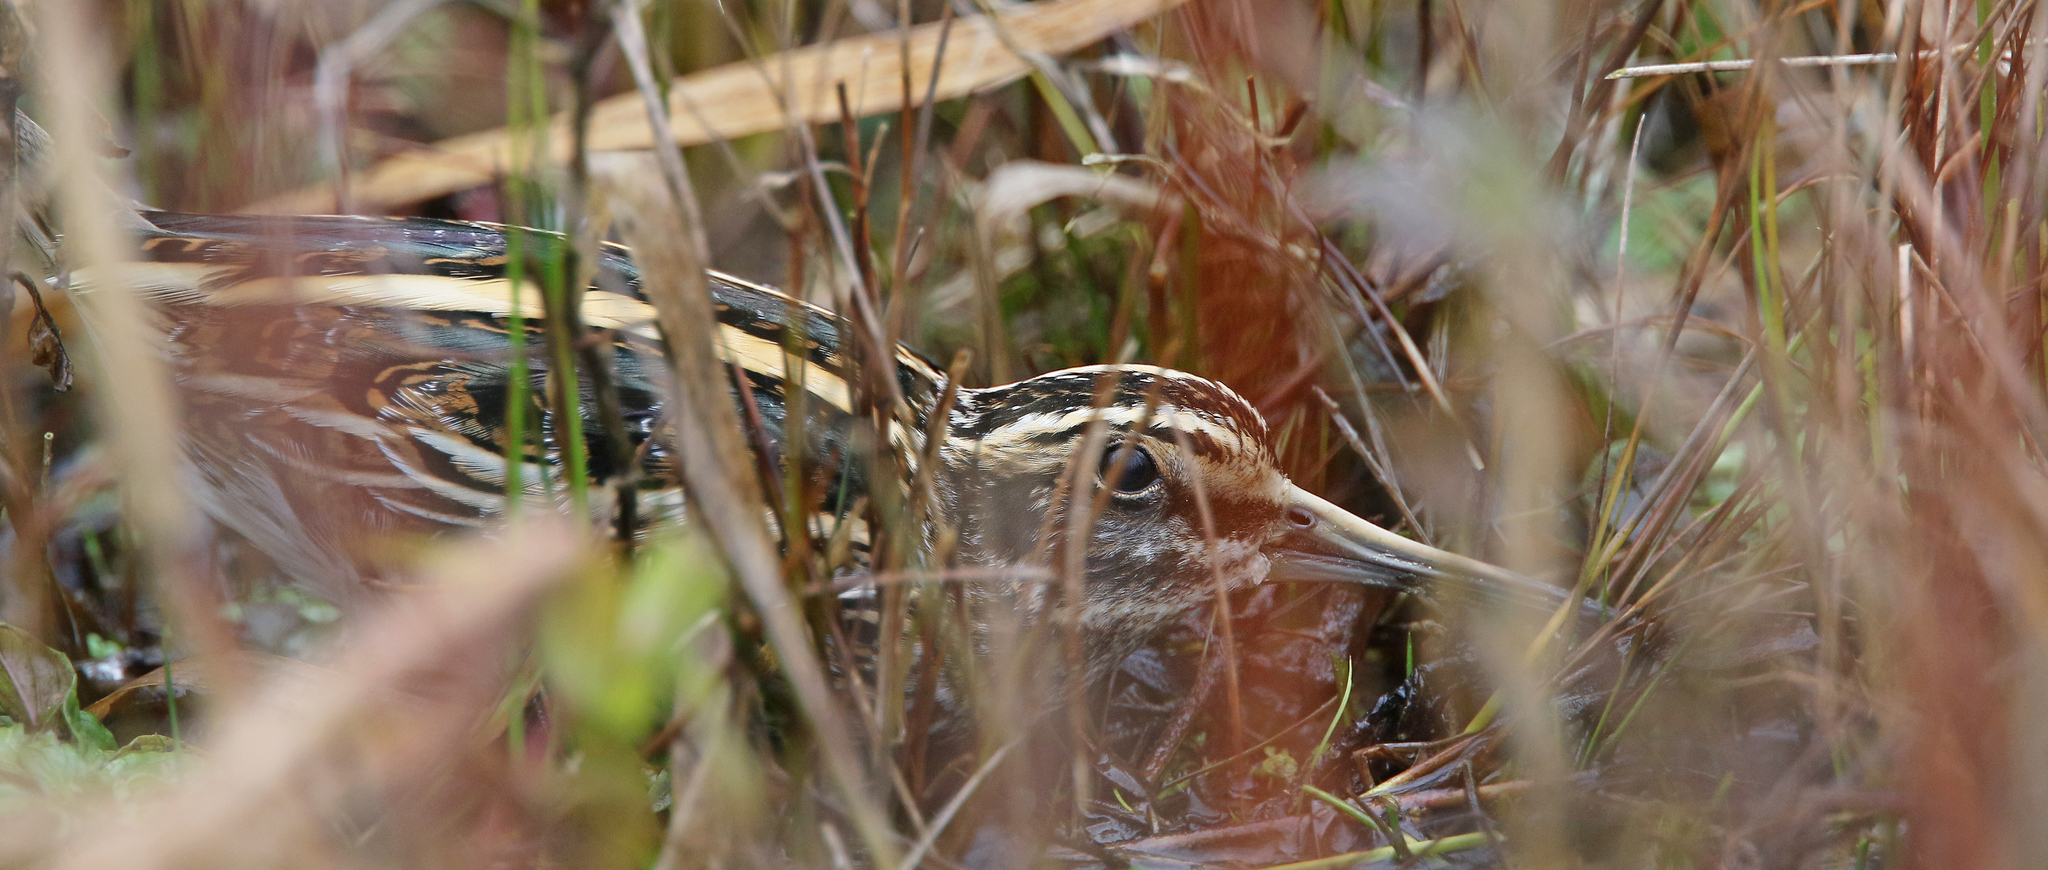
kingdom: Animalia
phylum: Chordata
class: Aves
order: Charadriiformes
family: Scolopacidae
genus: Lymnocryptes
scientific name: Lymnocryptes minimus
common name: Jack snipe
